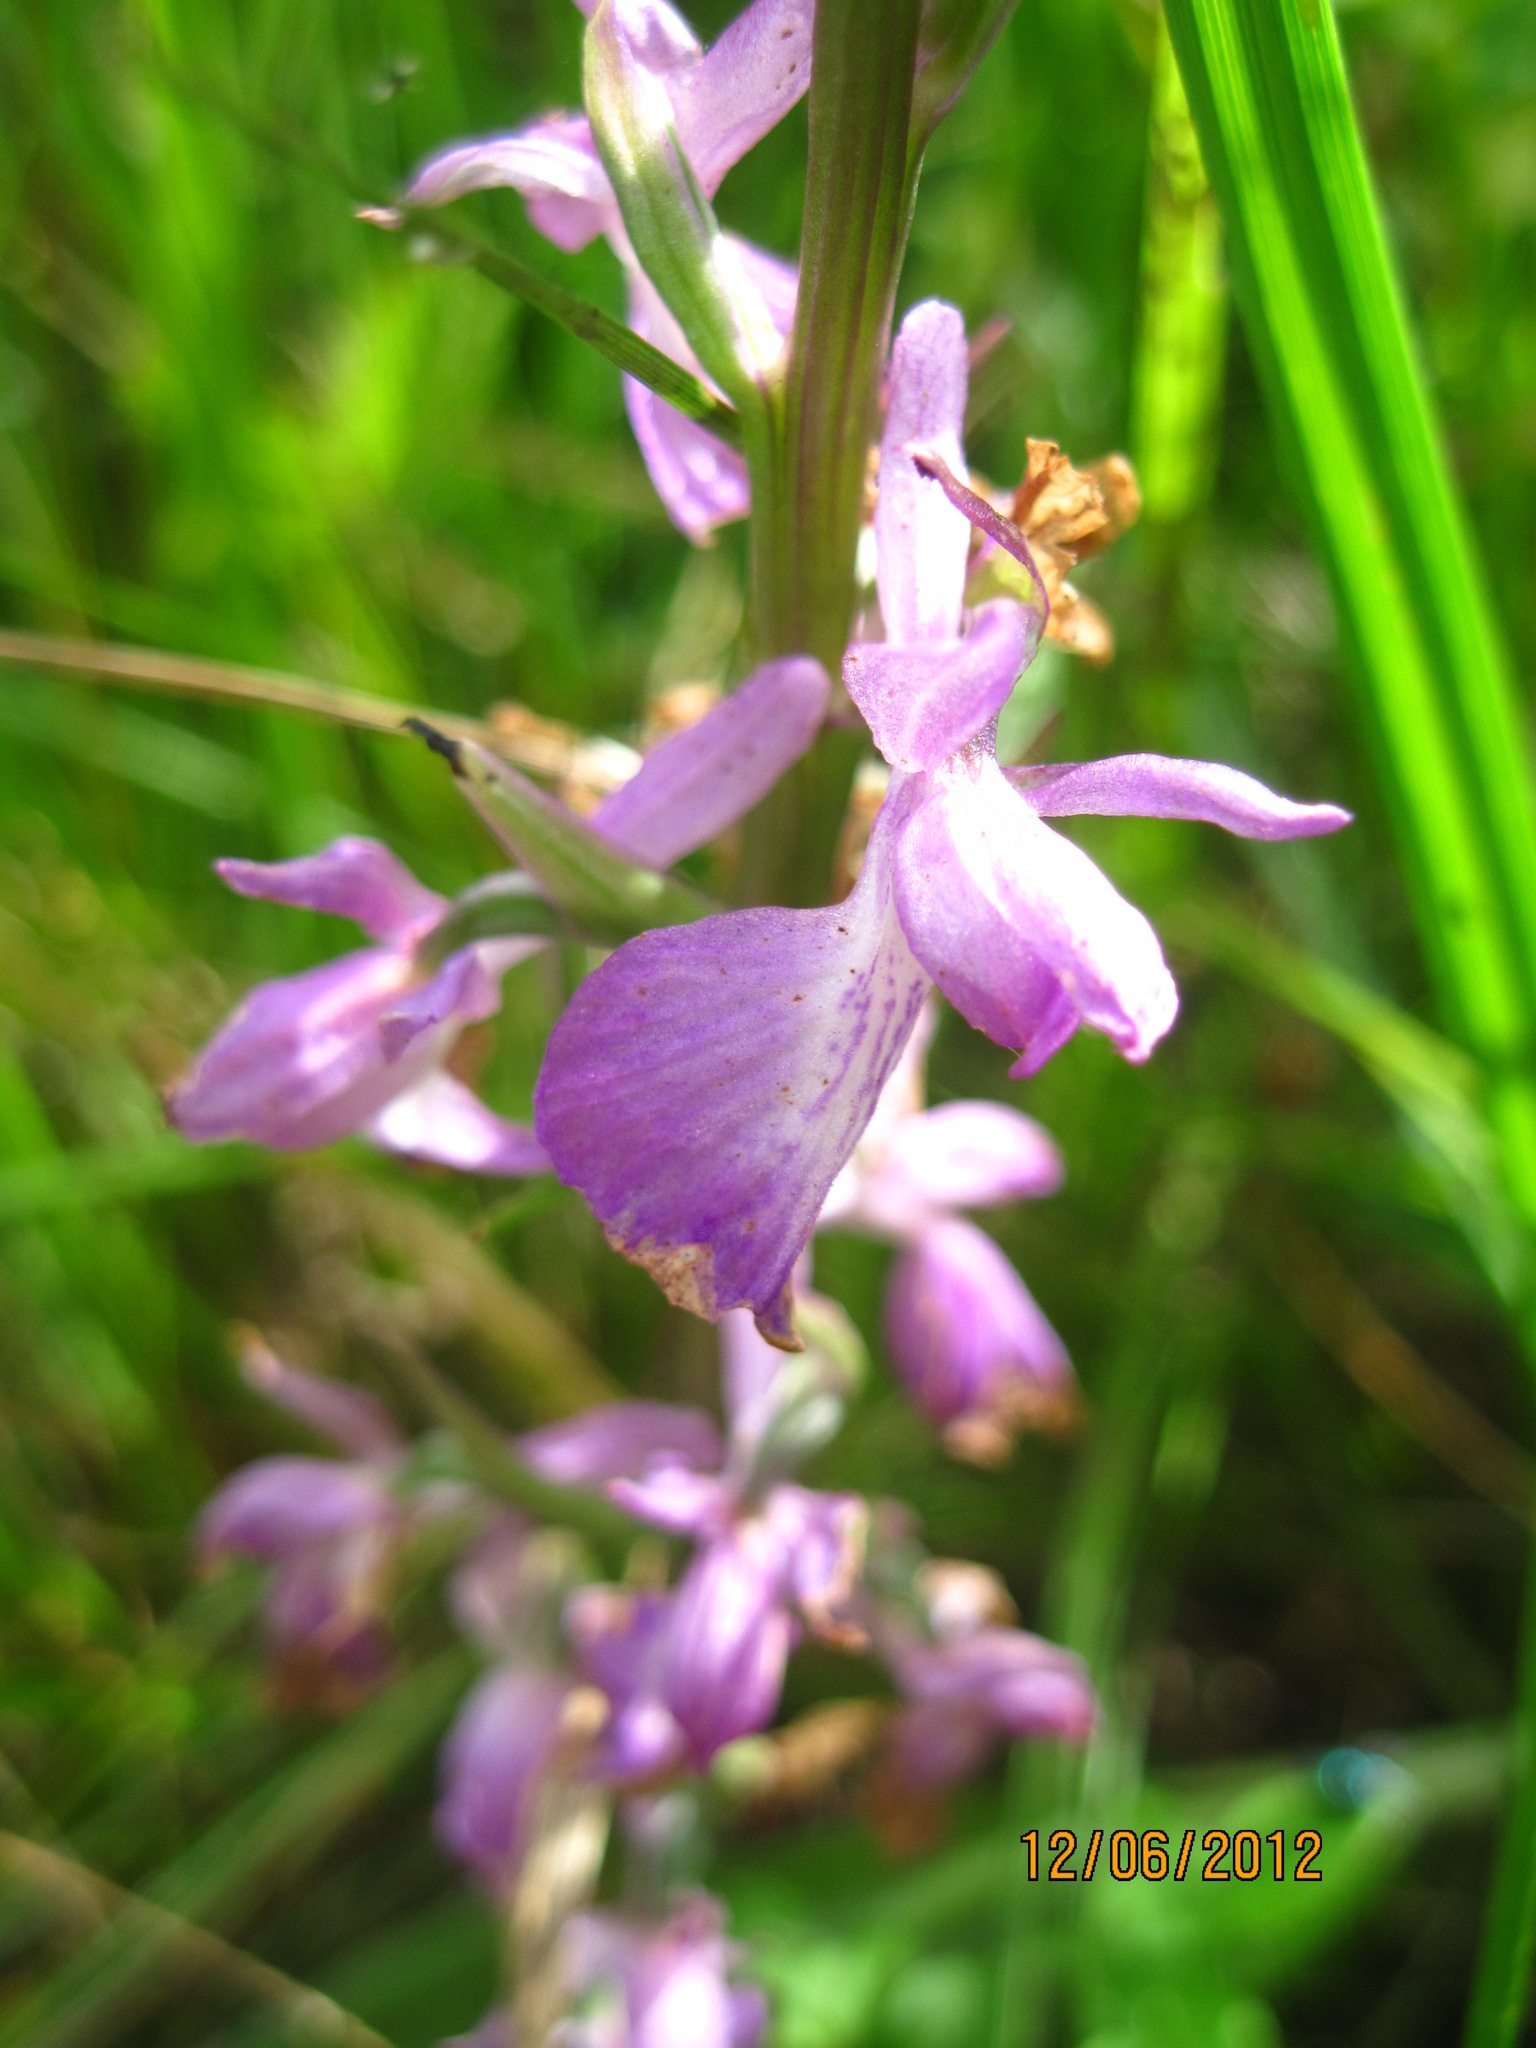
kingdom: Plantae
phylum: Tracheophyta
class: Liliopsida
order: Asparagales
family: Orchidaceae
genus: Anacamptis
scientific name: Anacamptis palustris
